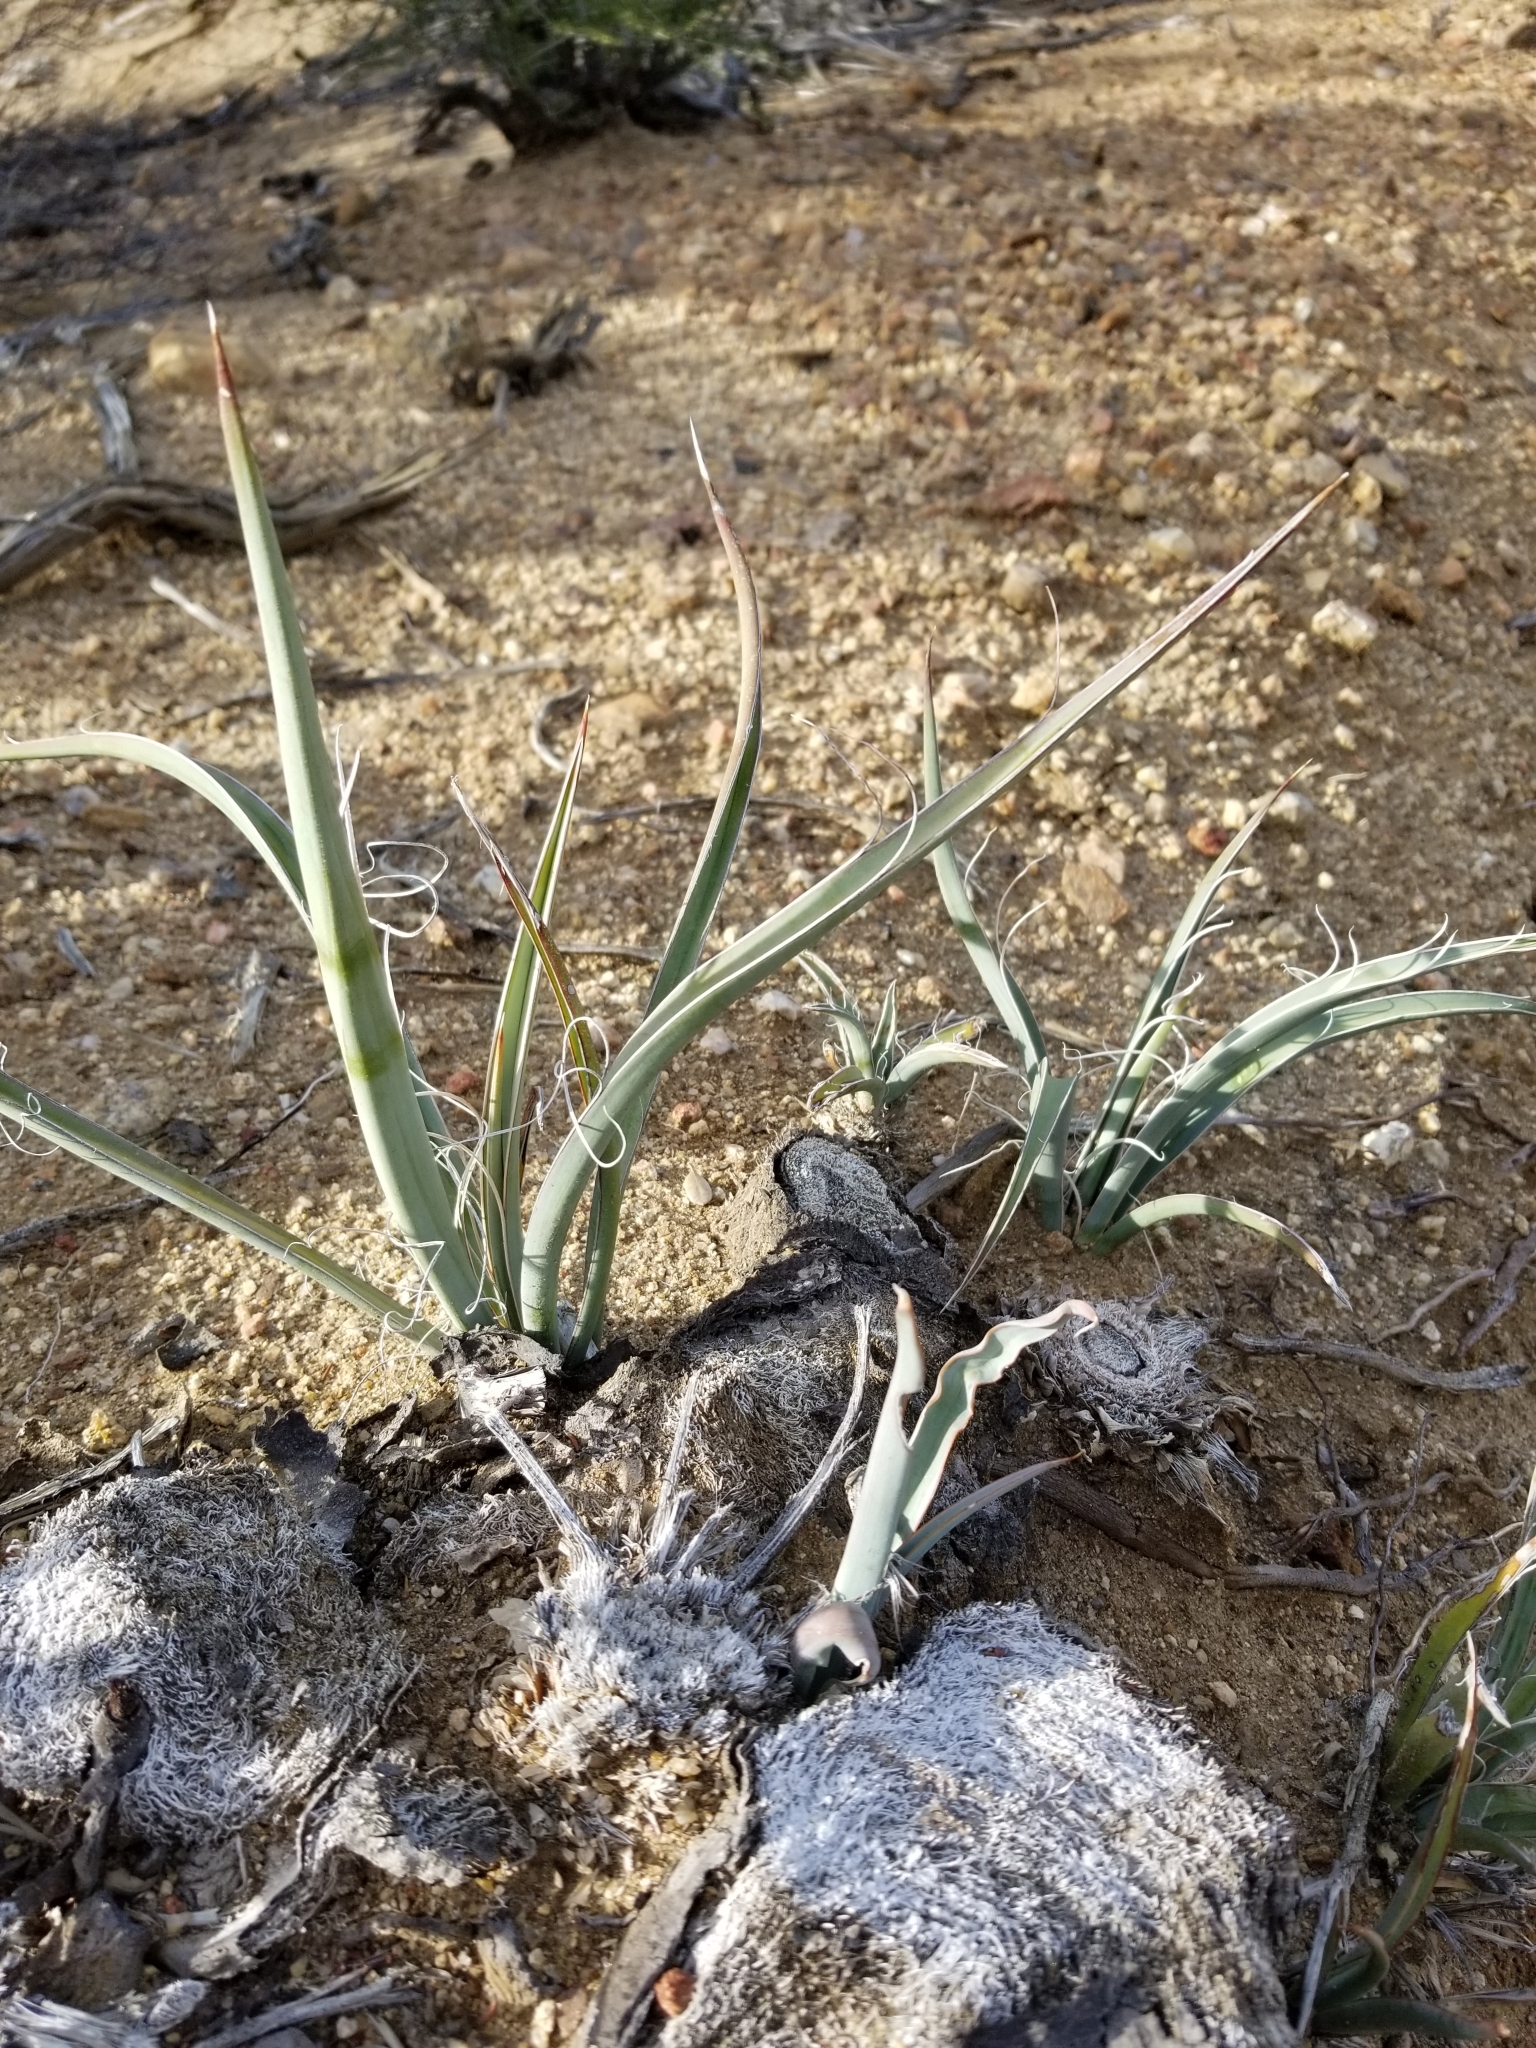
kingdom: Plantae
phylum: Tracheophyta
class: Liliopsida
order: Asparagales
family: Asparagaceae
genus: Yucca
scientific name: Yucca schidigera
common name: Mojave yucca
